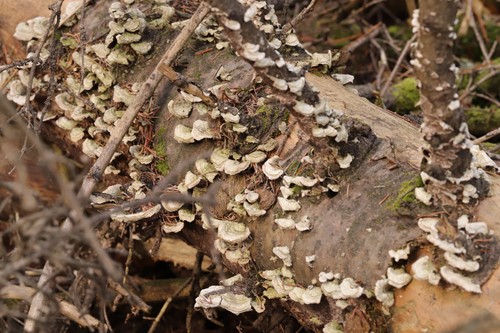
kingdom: Fungi
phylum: Basidiomycota
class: Agaricomycetes
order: Hymenochaetales
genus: Trichaptum
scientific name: Trichaptum fuscoviolaceum
